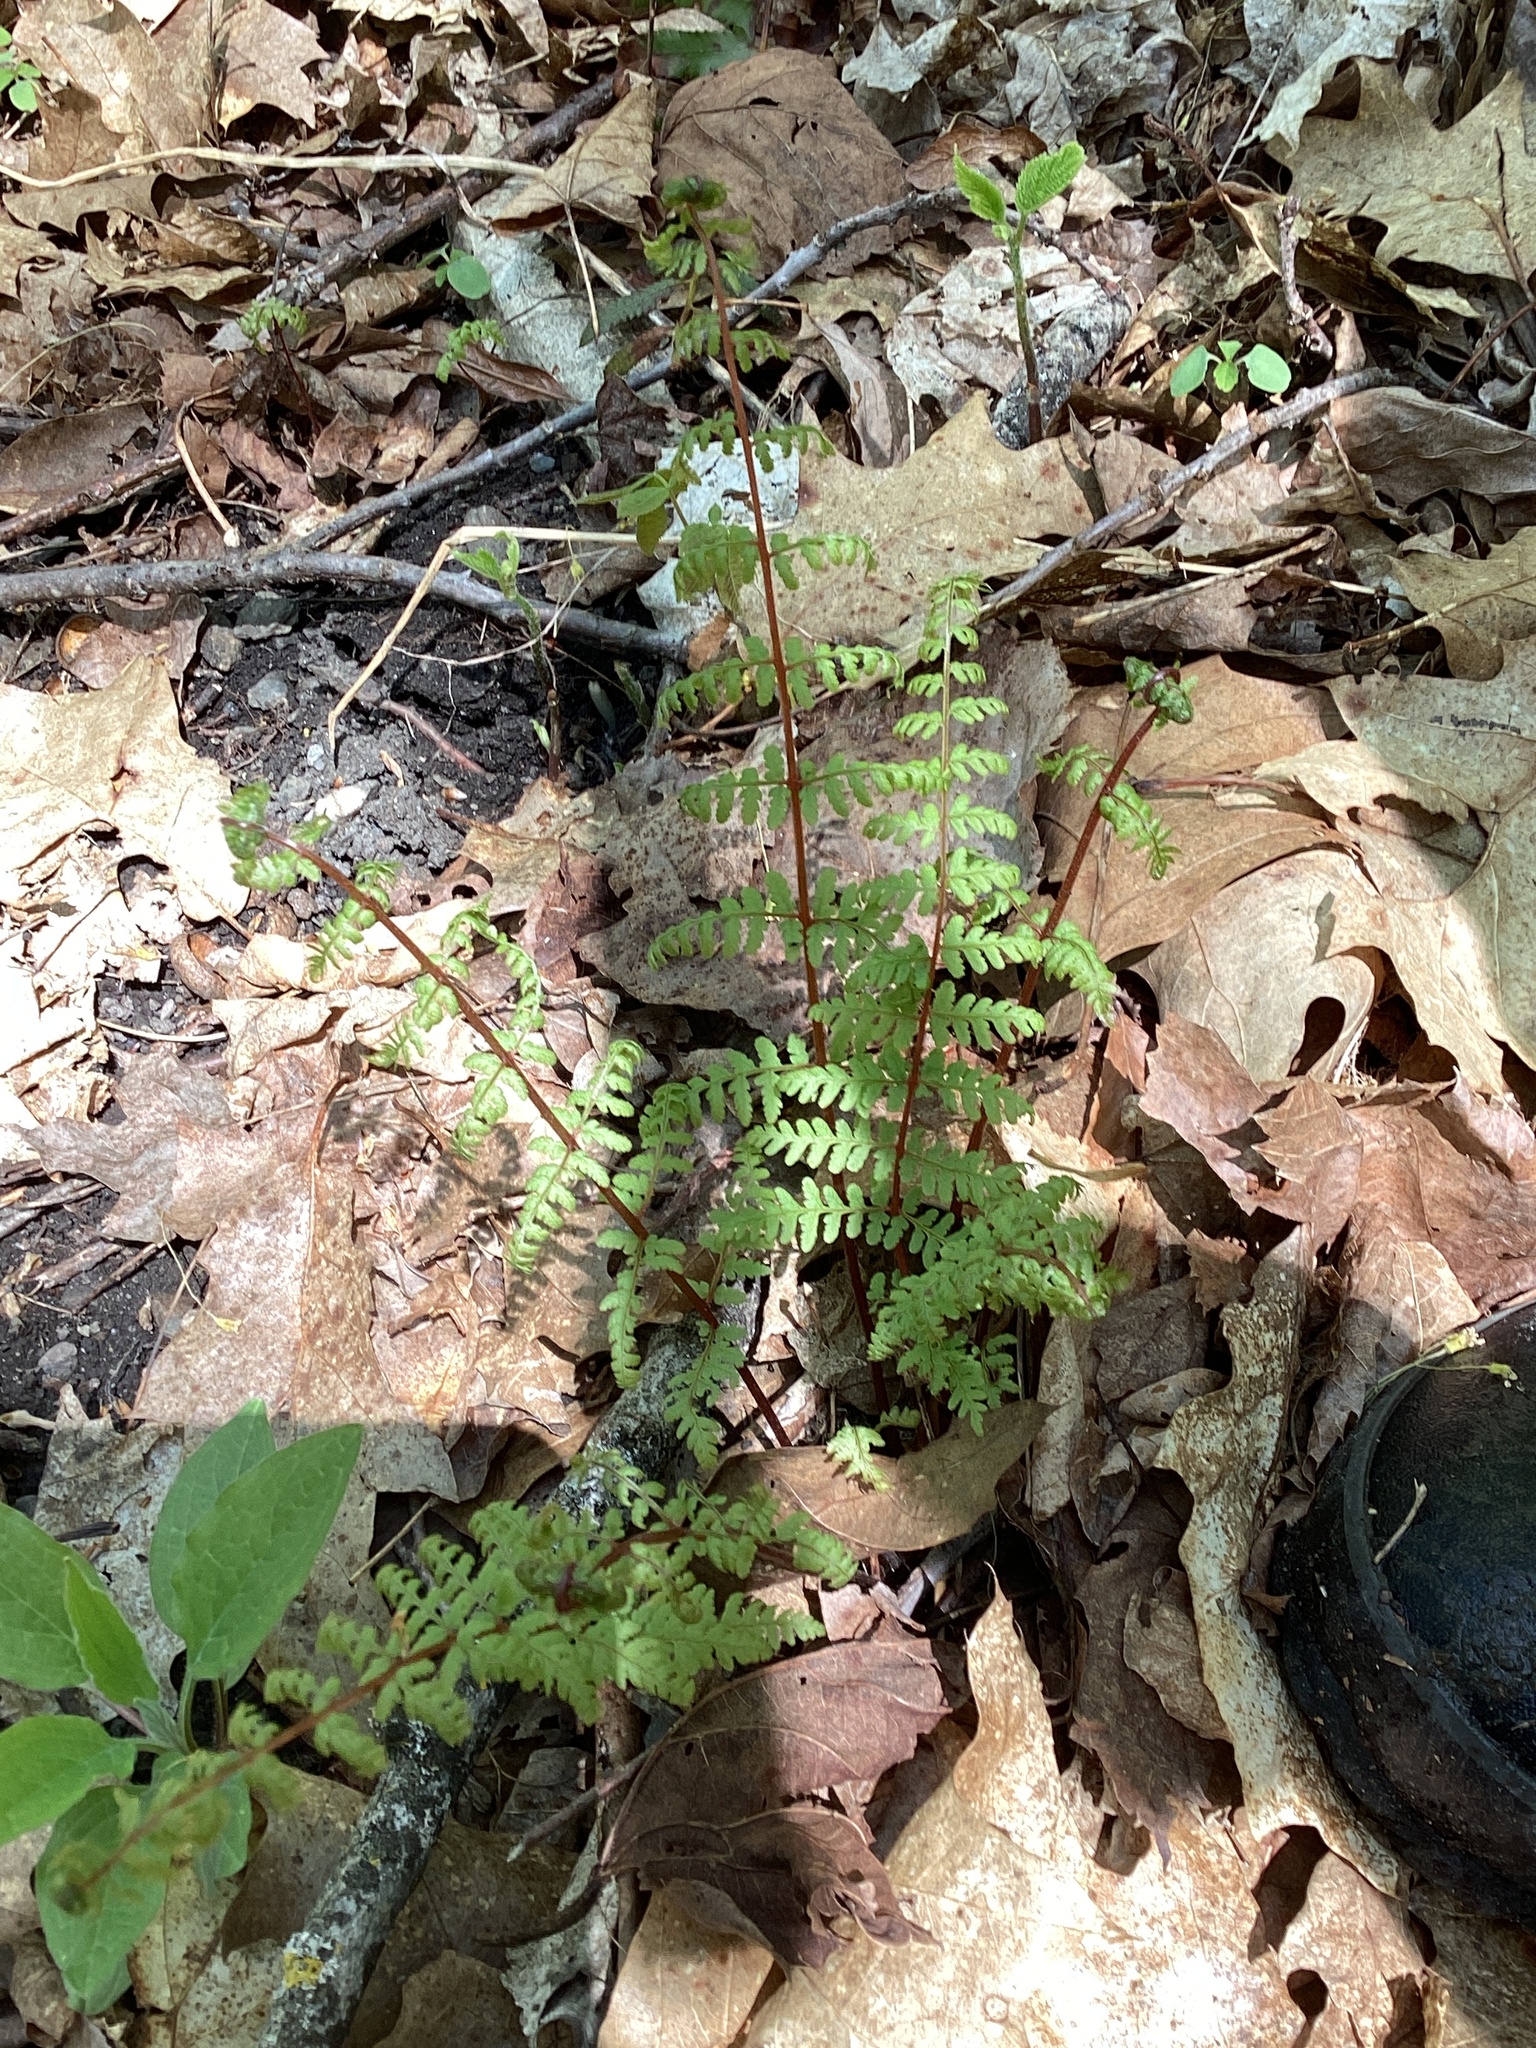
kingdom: Plantae
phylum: Tracheophyta
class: Polypodiopsida
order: Polypodiales
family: Athyriaceae
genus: Athyrium
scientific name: Athyrium angustum
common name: Northern lady fern
